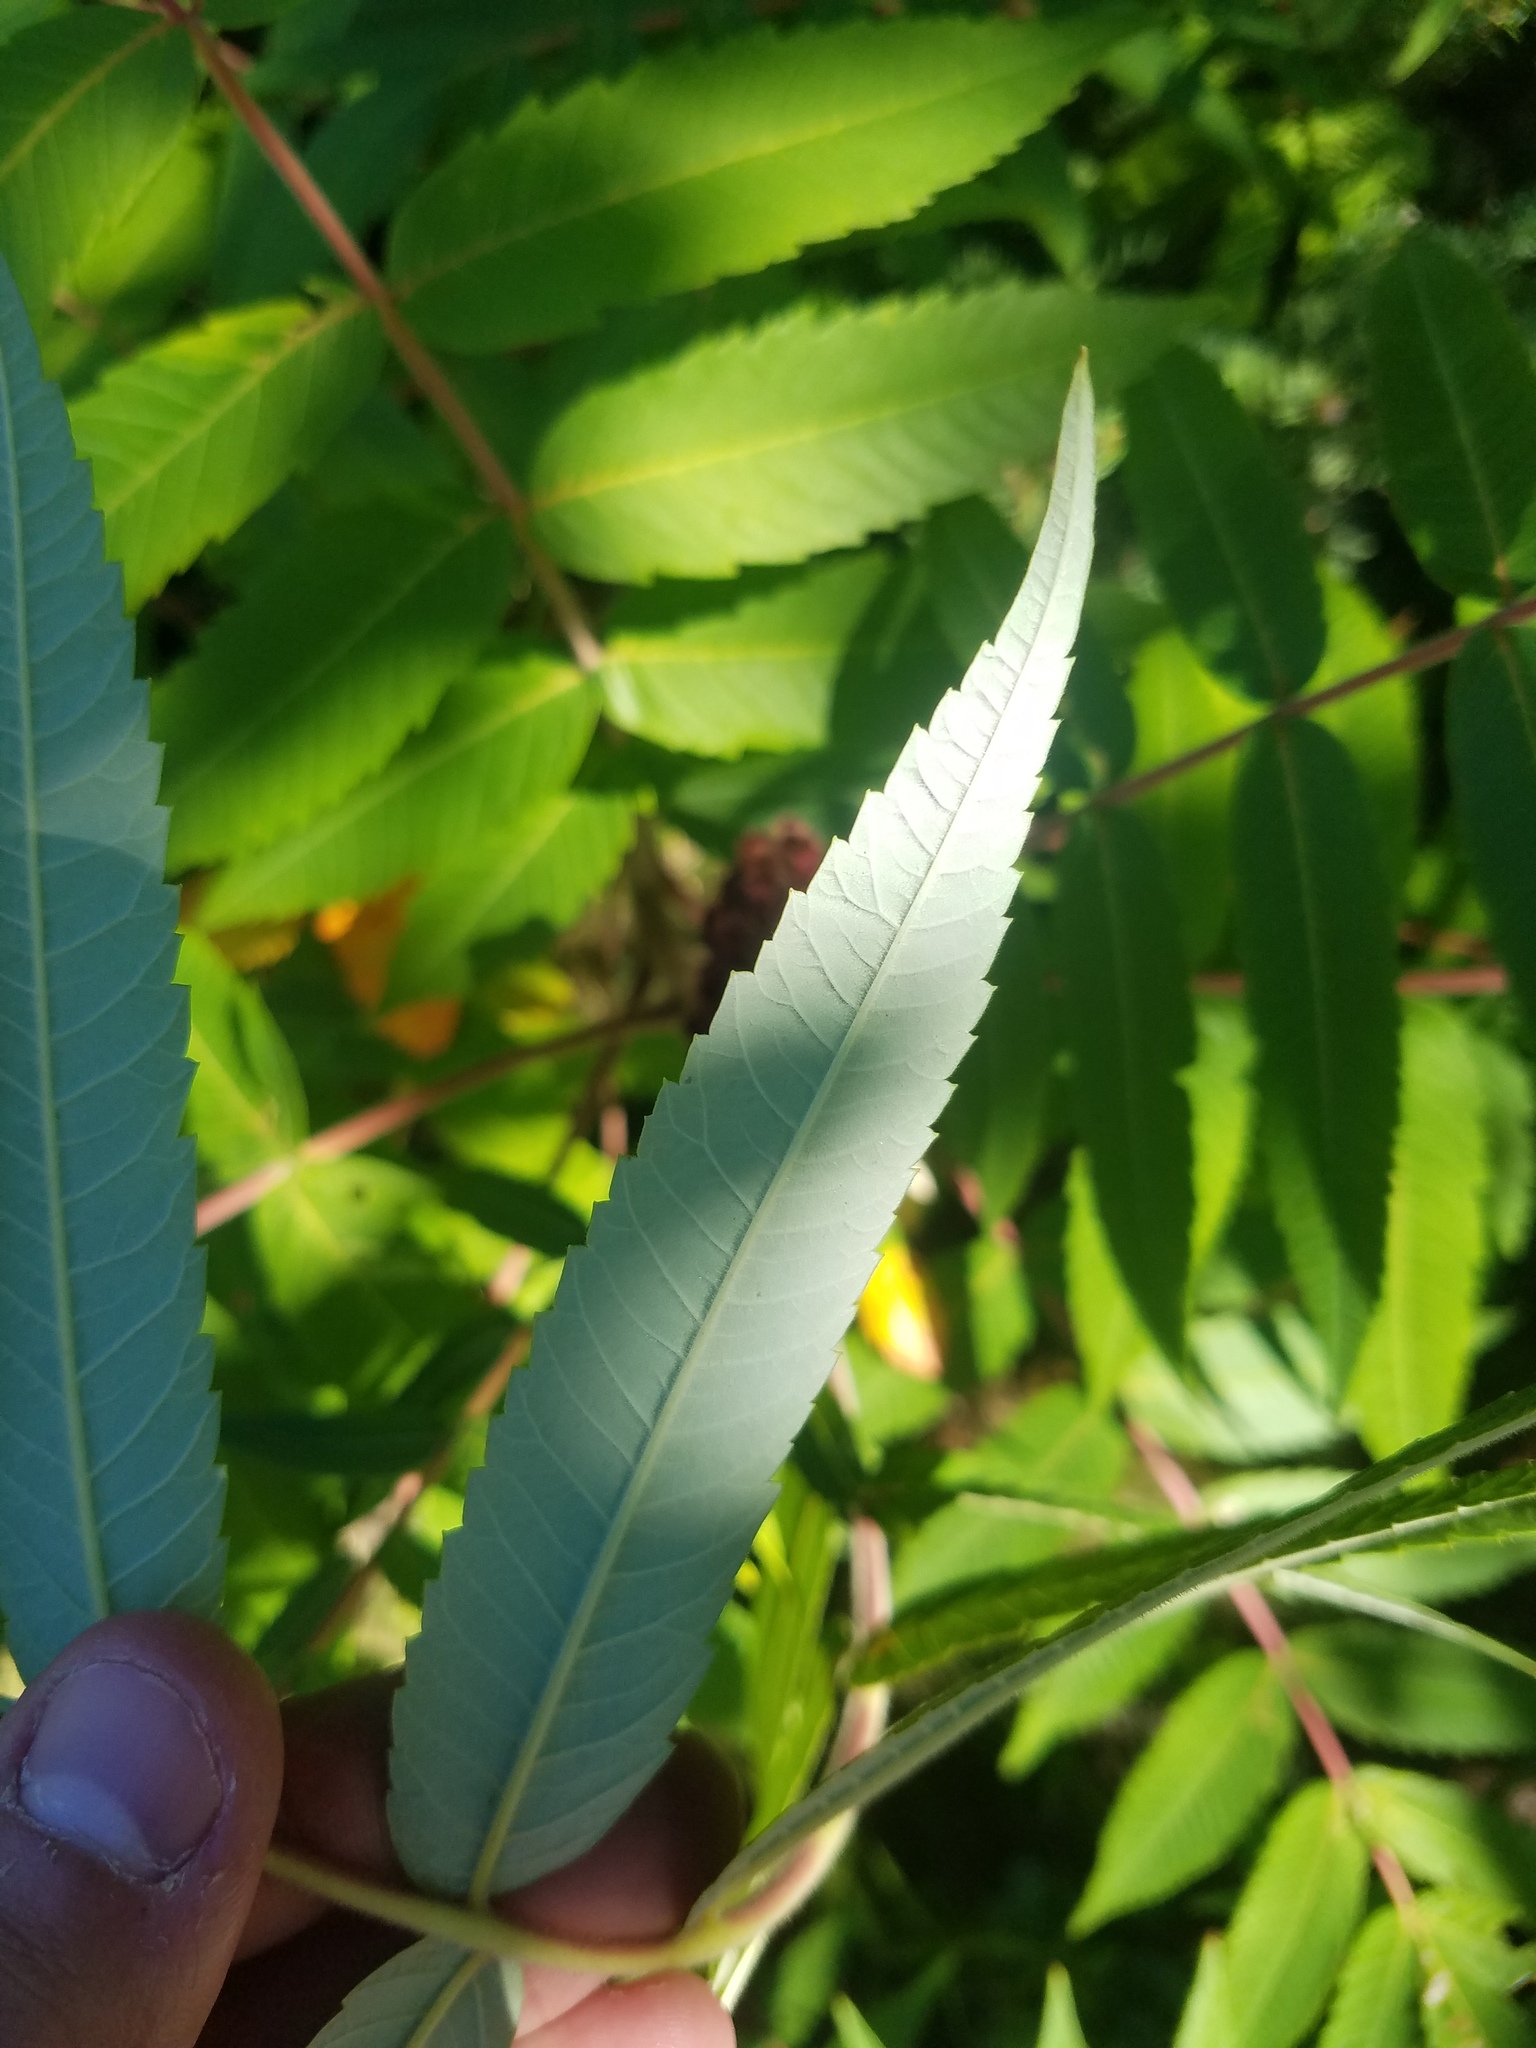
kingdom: Plantae
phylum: Tracheophyta
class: Magnoliopsida
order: Sapindales
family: Anacardiaceae
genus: Rhus
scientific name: Rhus typhina
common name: Staghorn sumac
